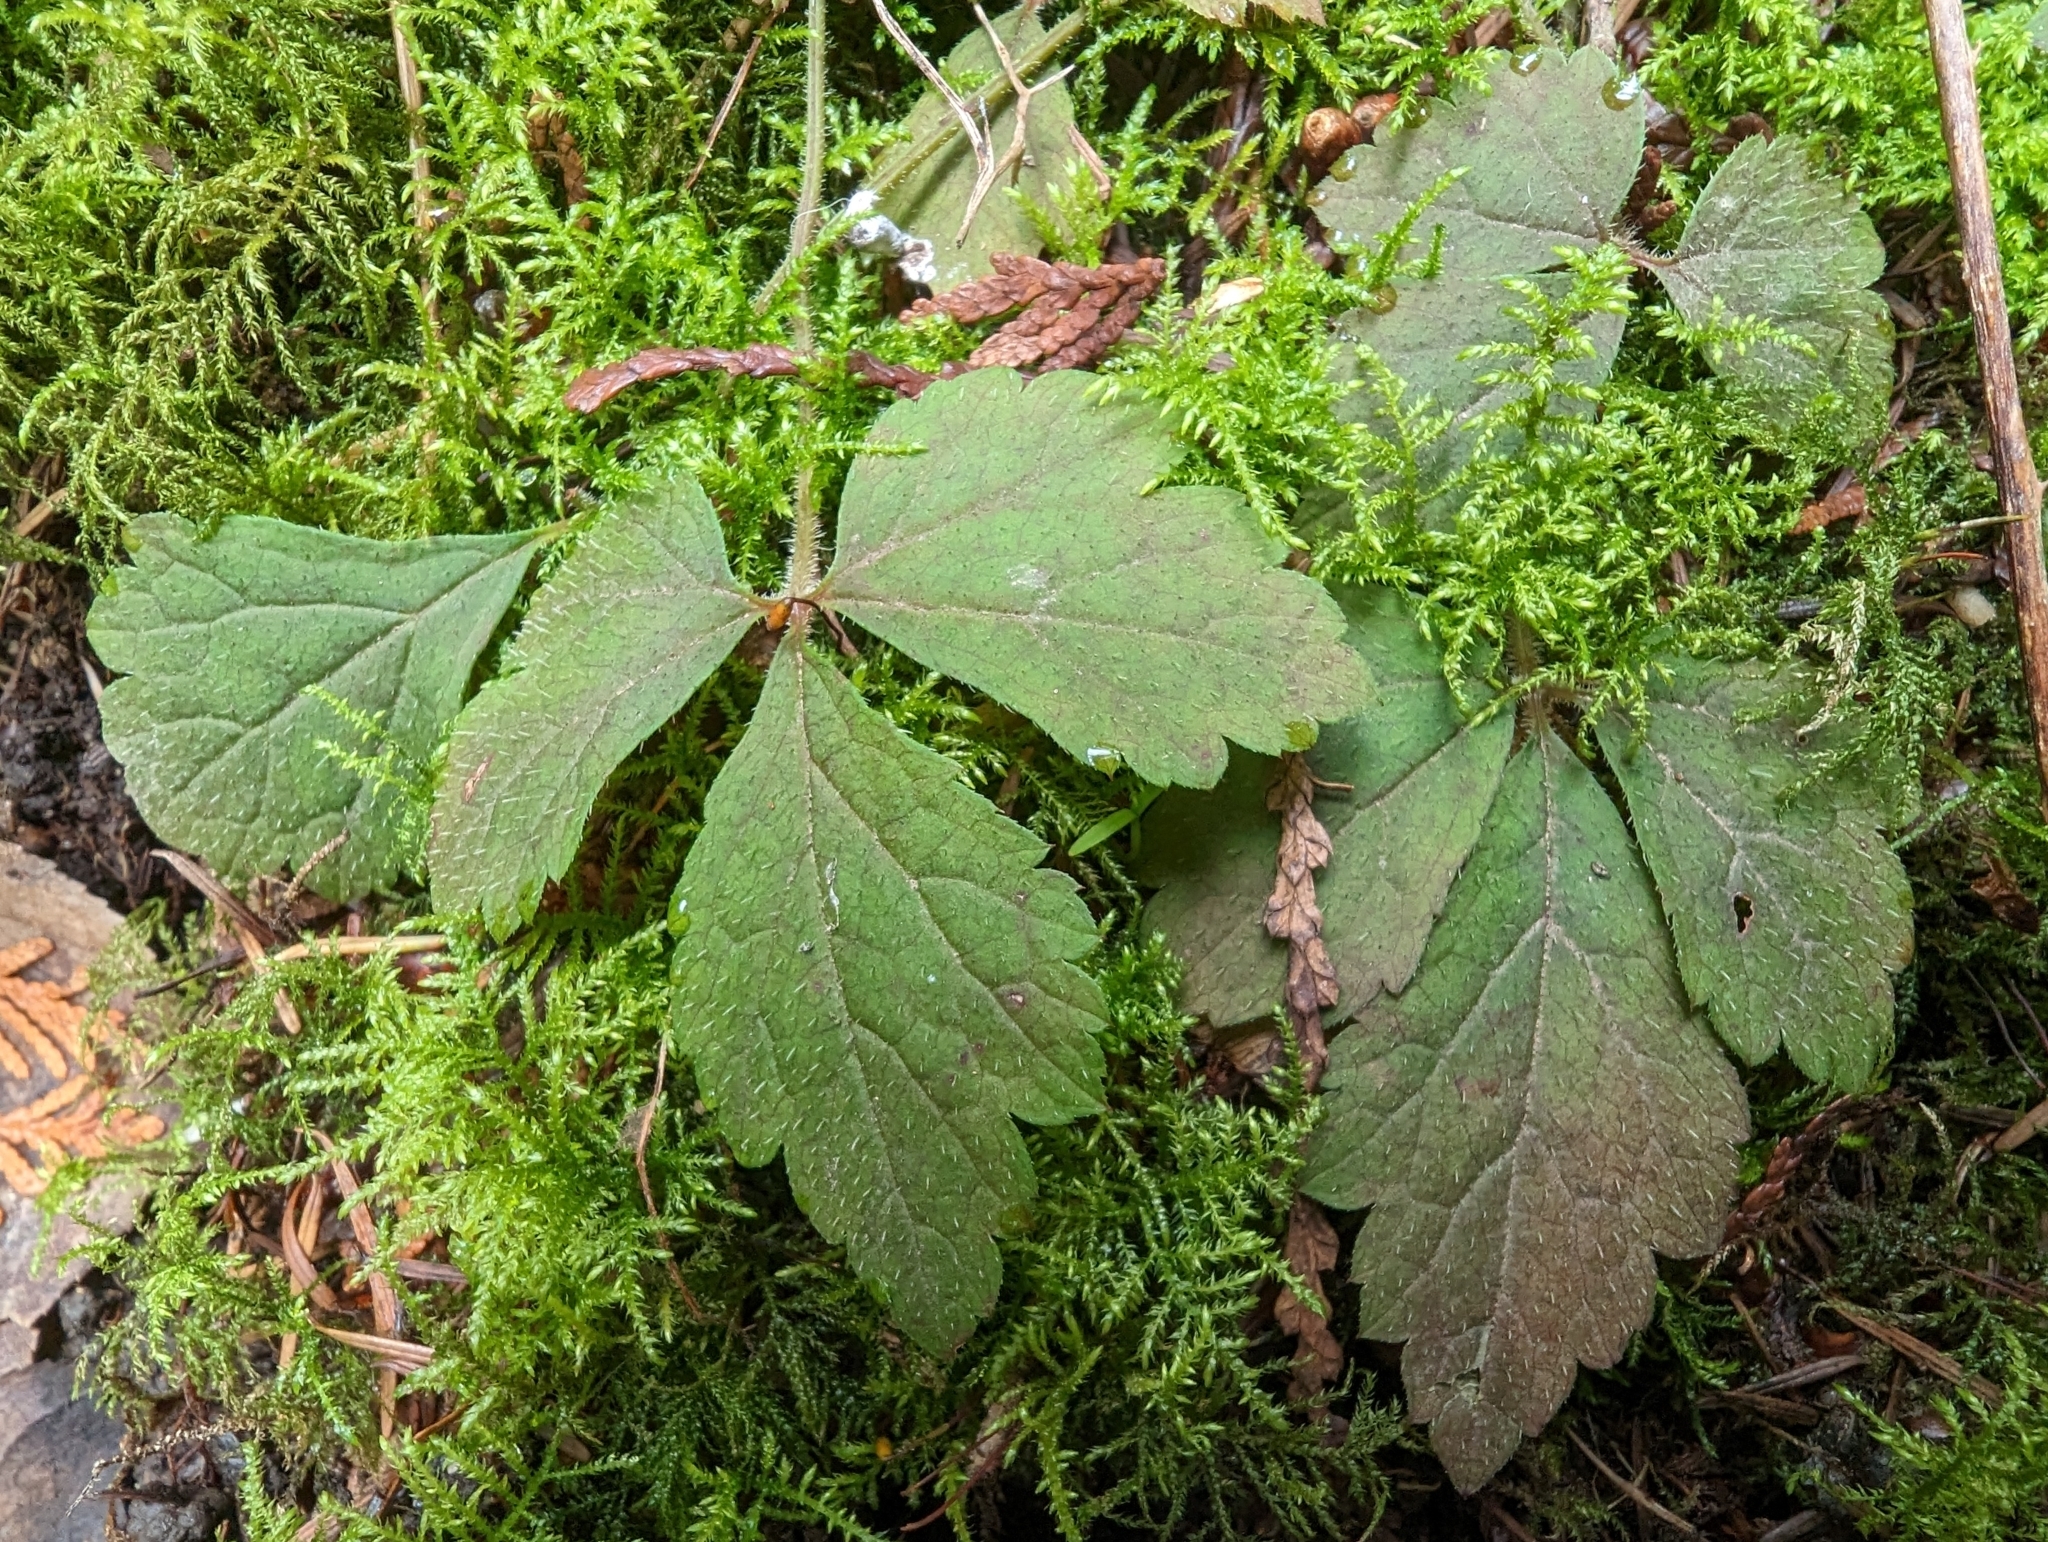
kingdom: Plantae
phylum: Tracheophyta
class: Magnoliopsida
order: Saxifragales
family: Saxifragaceae
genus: Tiarella
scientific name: Tiarella trifoliata
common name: Sugar-scoop
